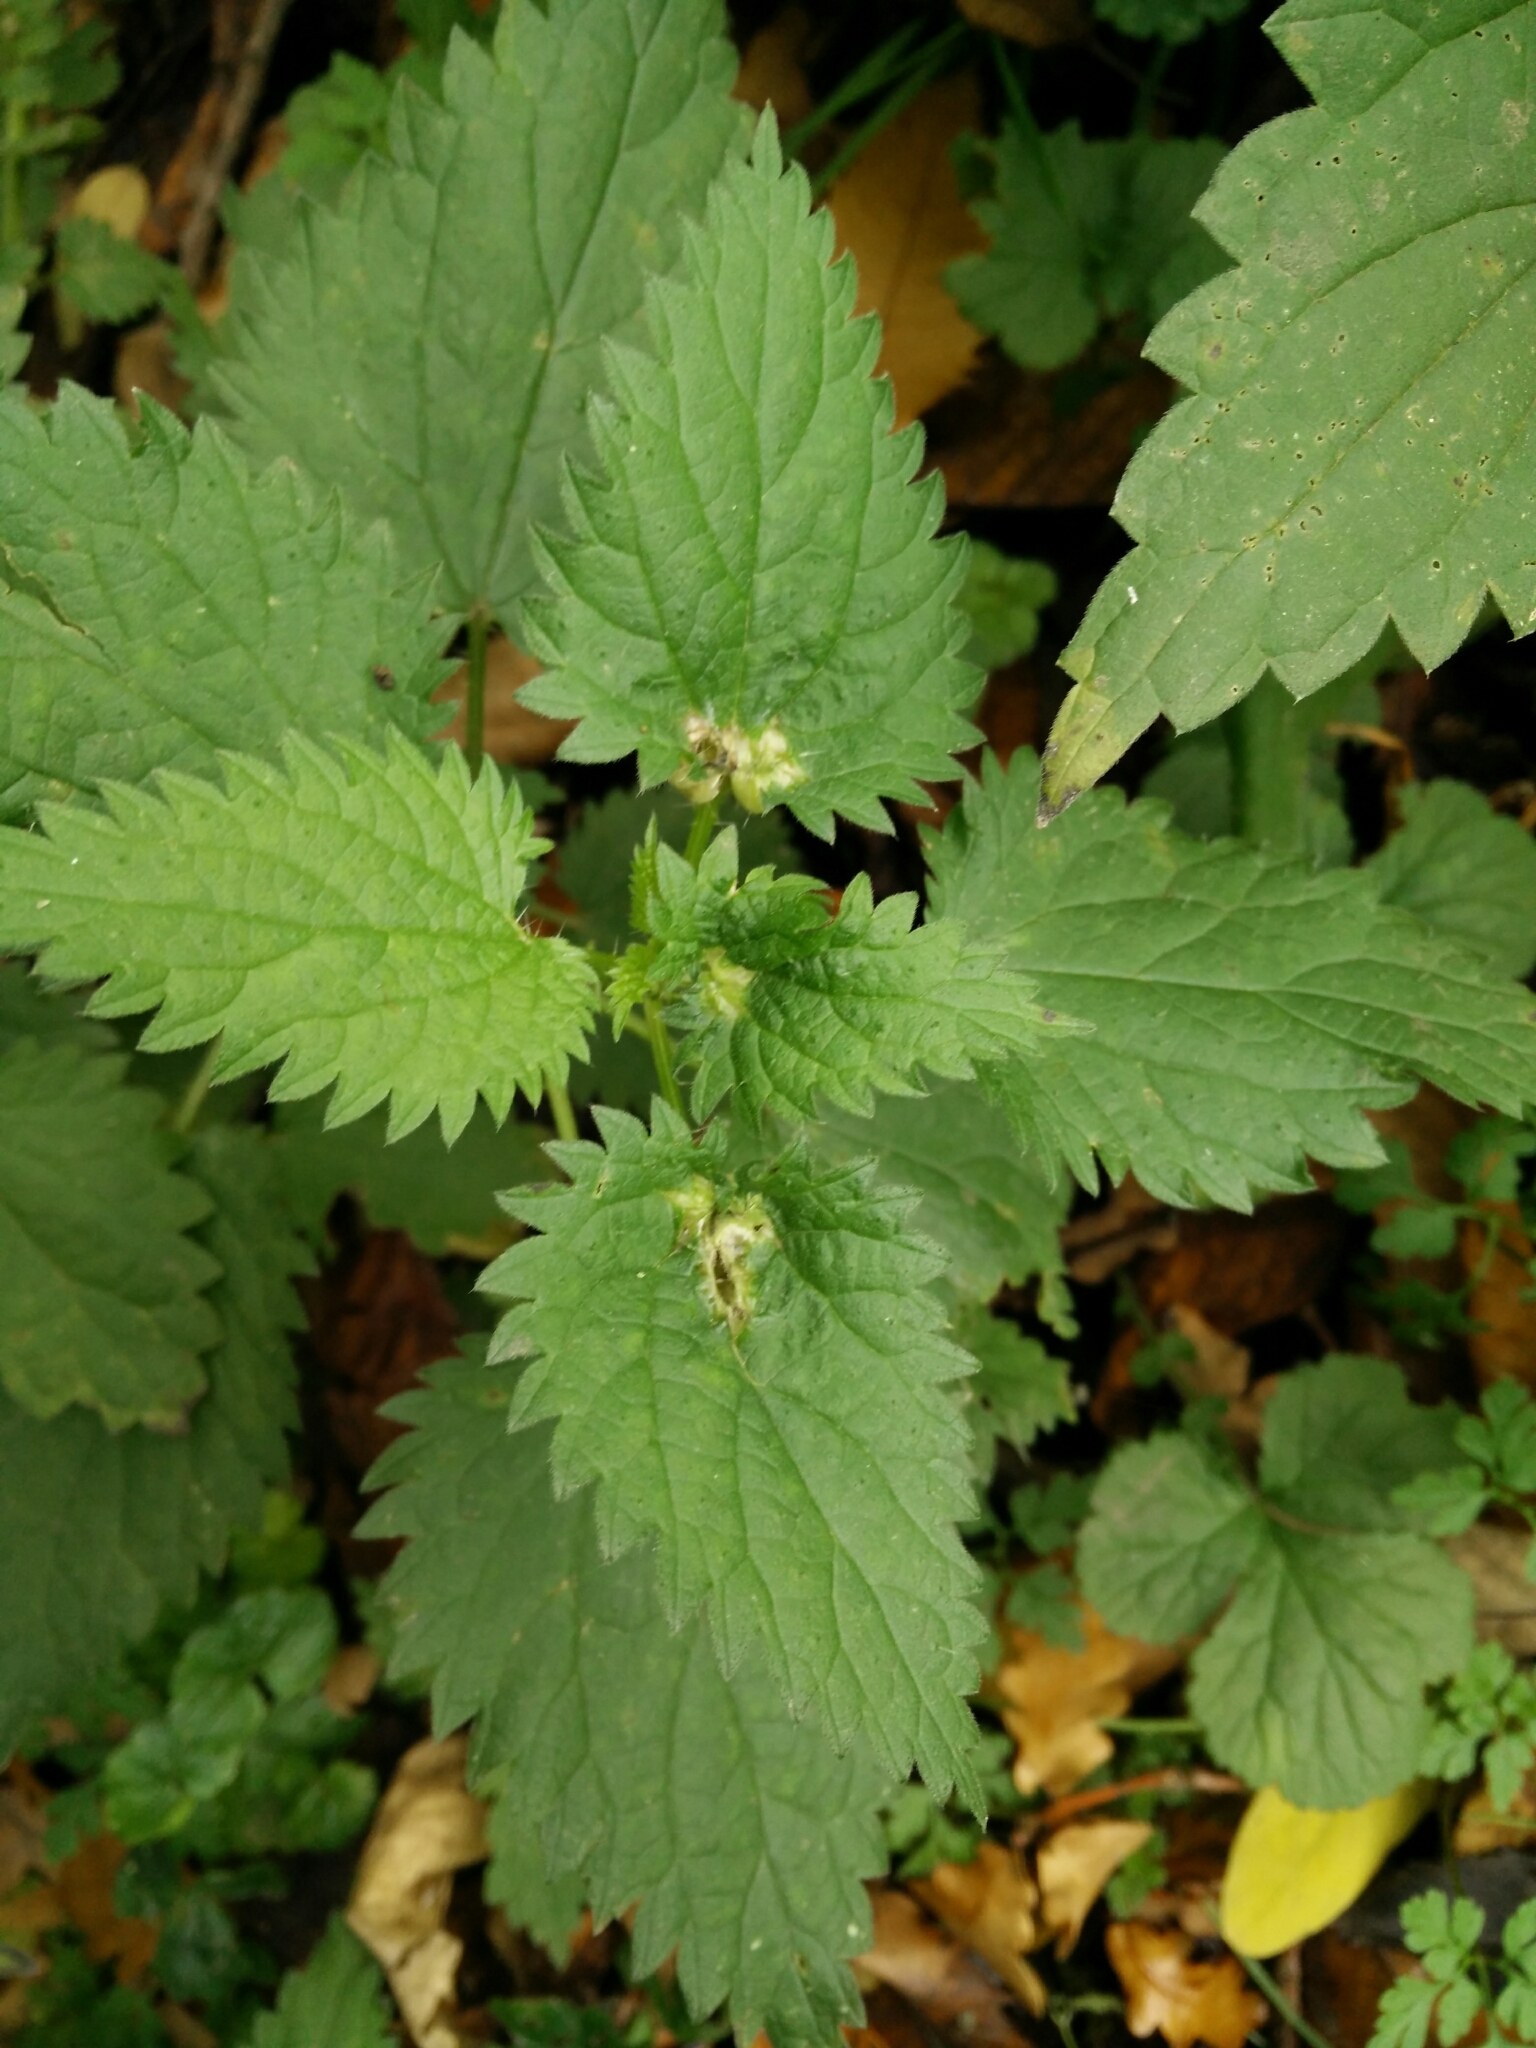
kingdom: Animalia
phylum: Arthropoda
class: Insecta
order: Diptera
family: Cecidomyiidae
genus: Dasineura
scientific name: Dasineura urticae
